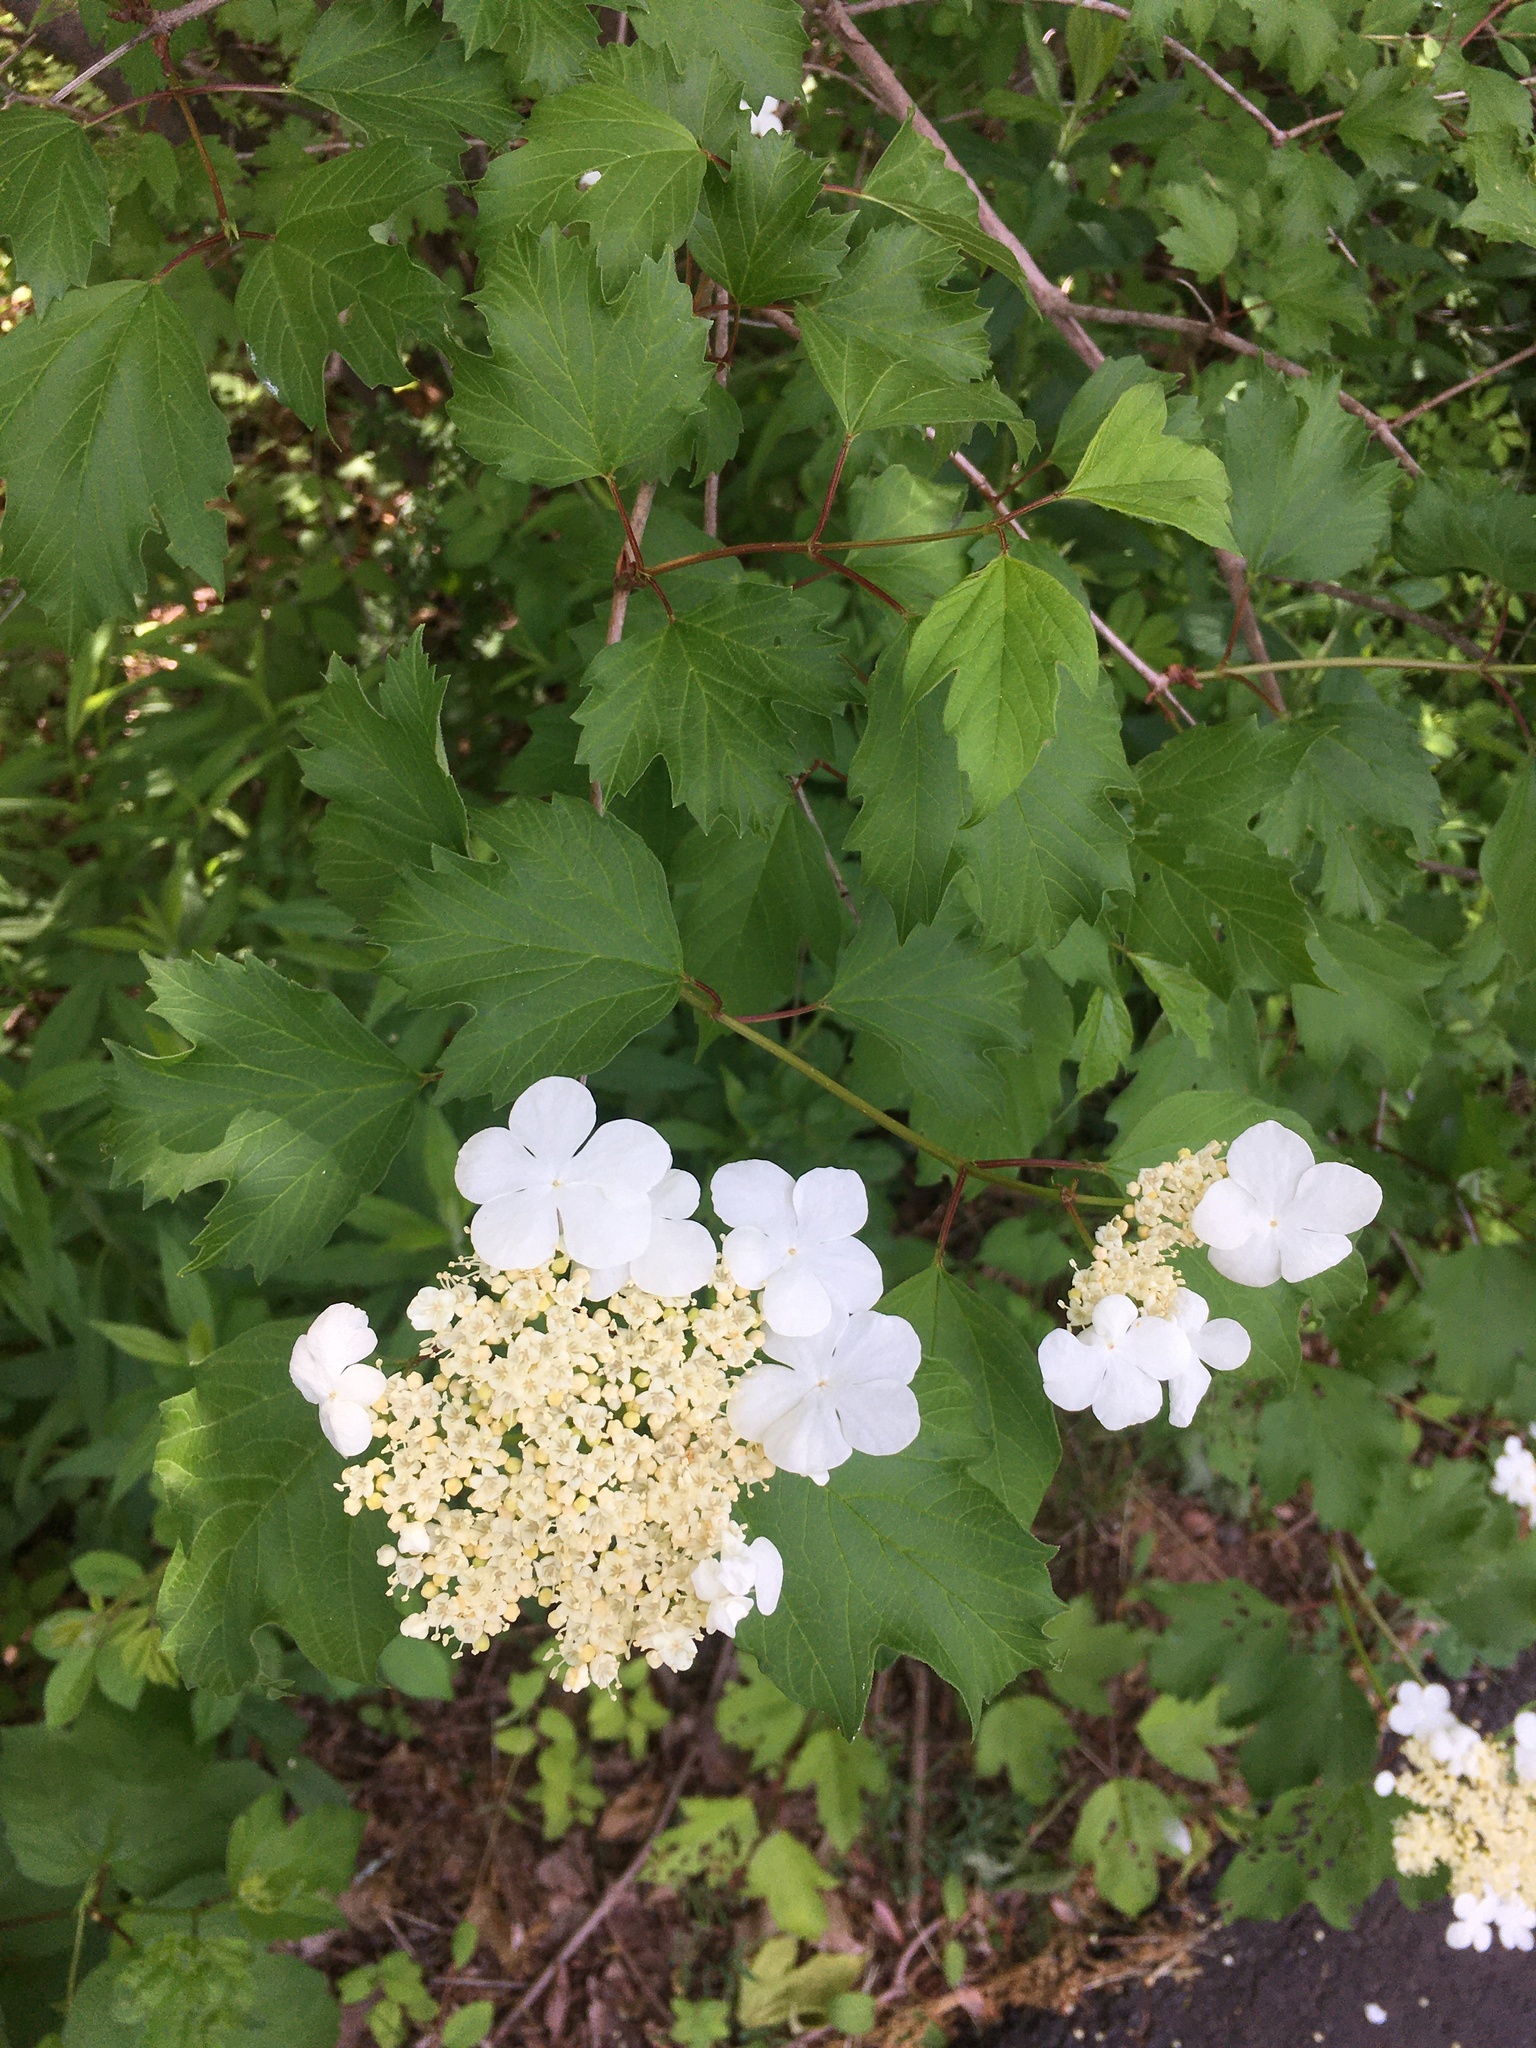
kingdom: Plantae
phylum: Tracheophyta
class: Magnoliopsida
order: Dipsacales
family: Viburnaceae
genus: Viburnum
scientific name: Viburnum opulus
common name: Guelder-rose
